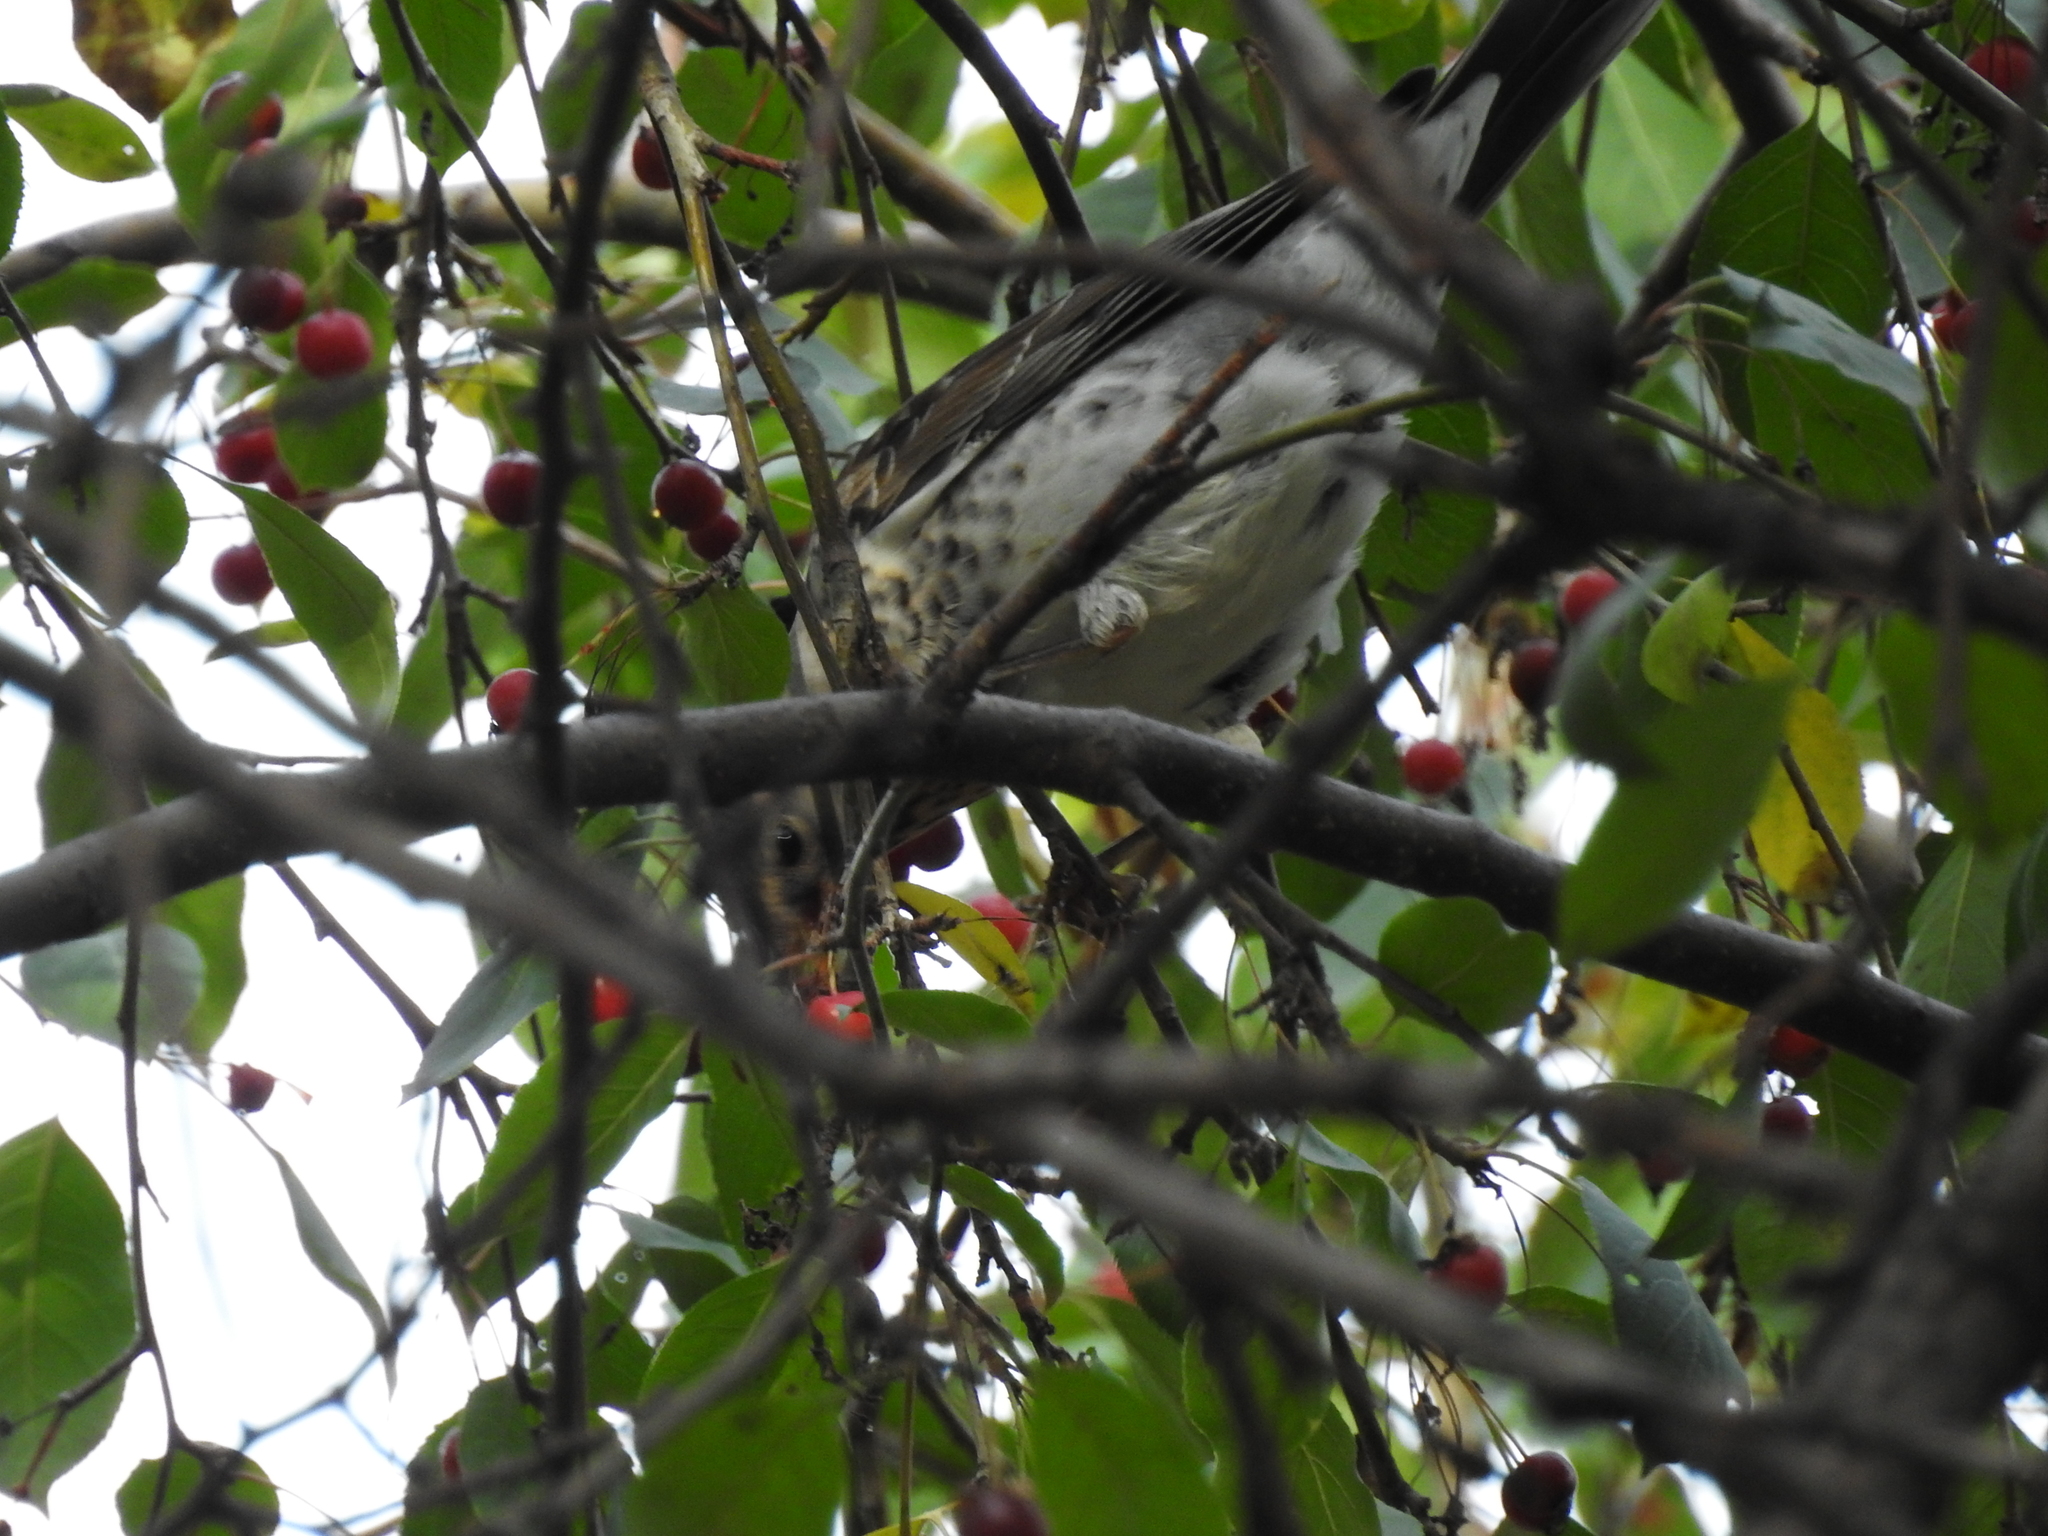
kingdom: Animalia
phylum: Chordata
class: Aves
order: Passeriformes
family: Turdidae
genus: Turdus
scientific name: Turdus pilaris
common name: Fieldfare
